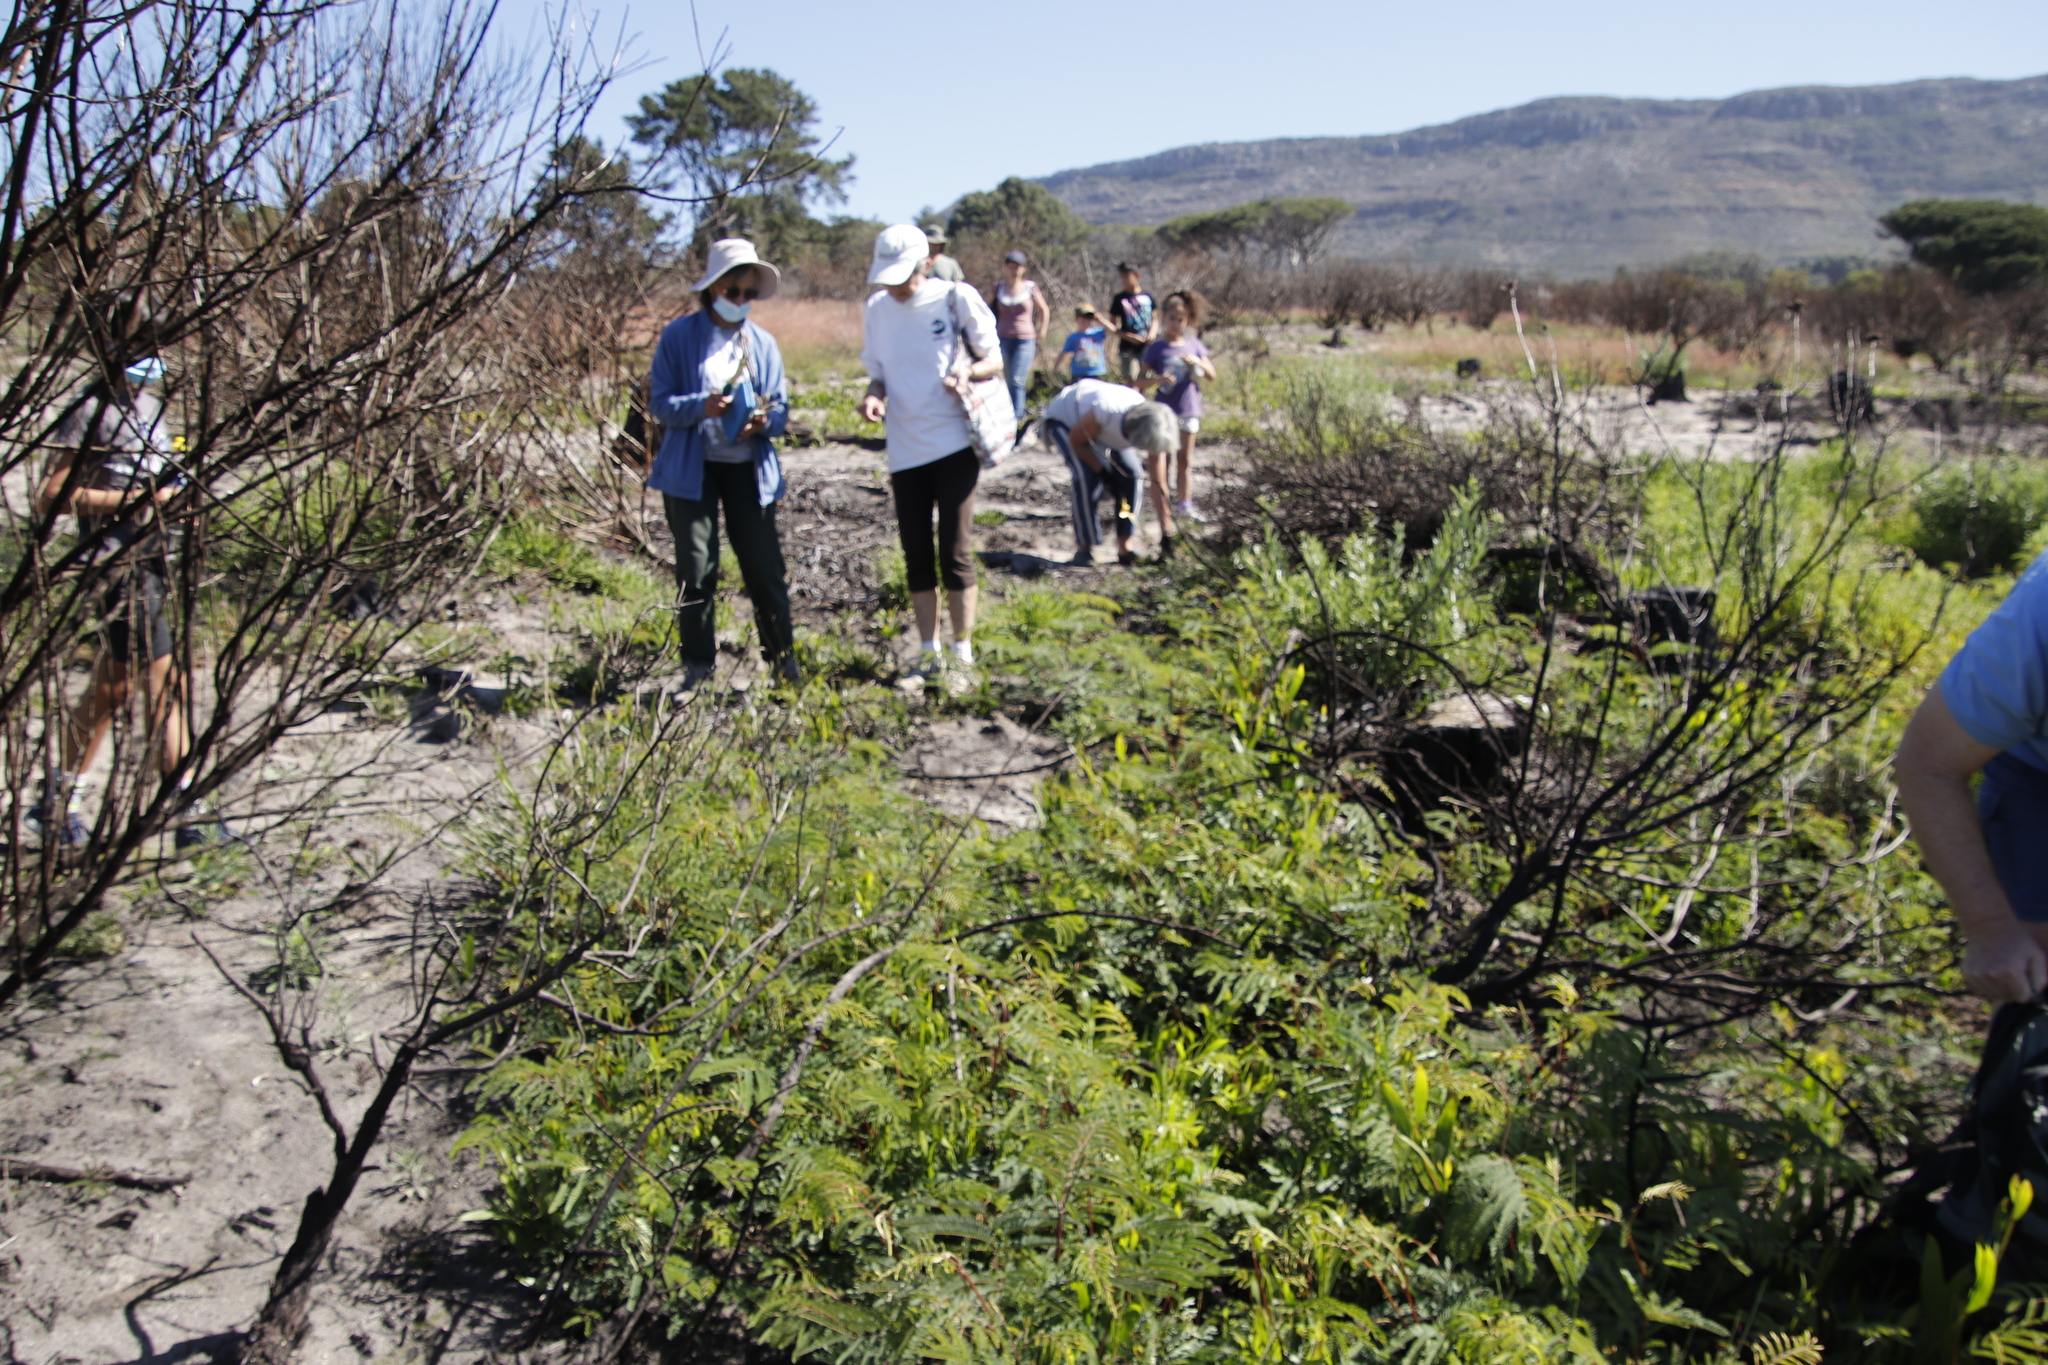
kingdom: Plantae
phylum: Tracheophyta
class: Magnoliopsida
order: Fabales
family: Fabaceae
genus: Paraserianthes
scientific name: Paraserianthes lophantha
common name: Plume albizia
